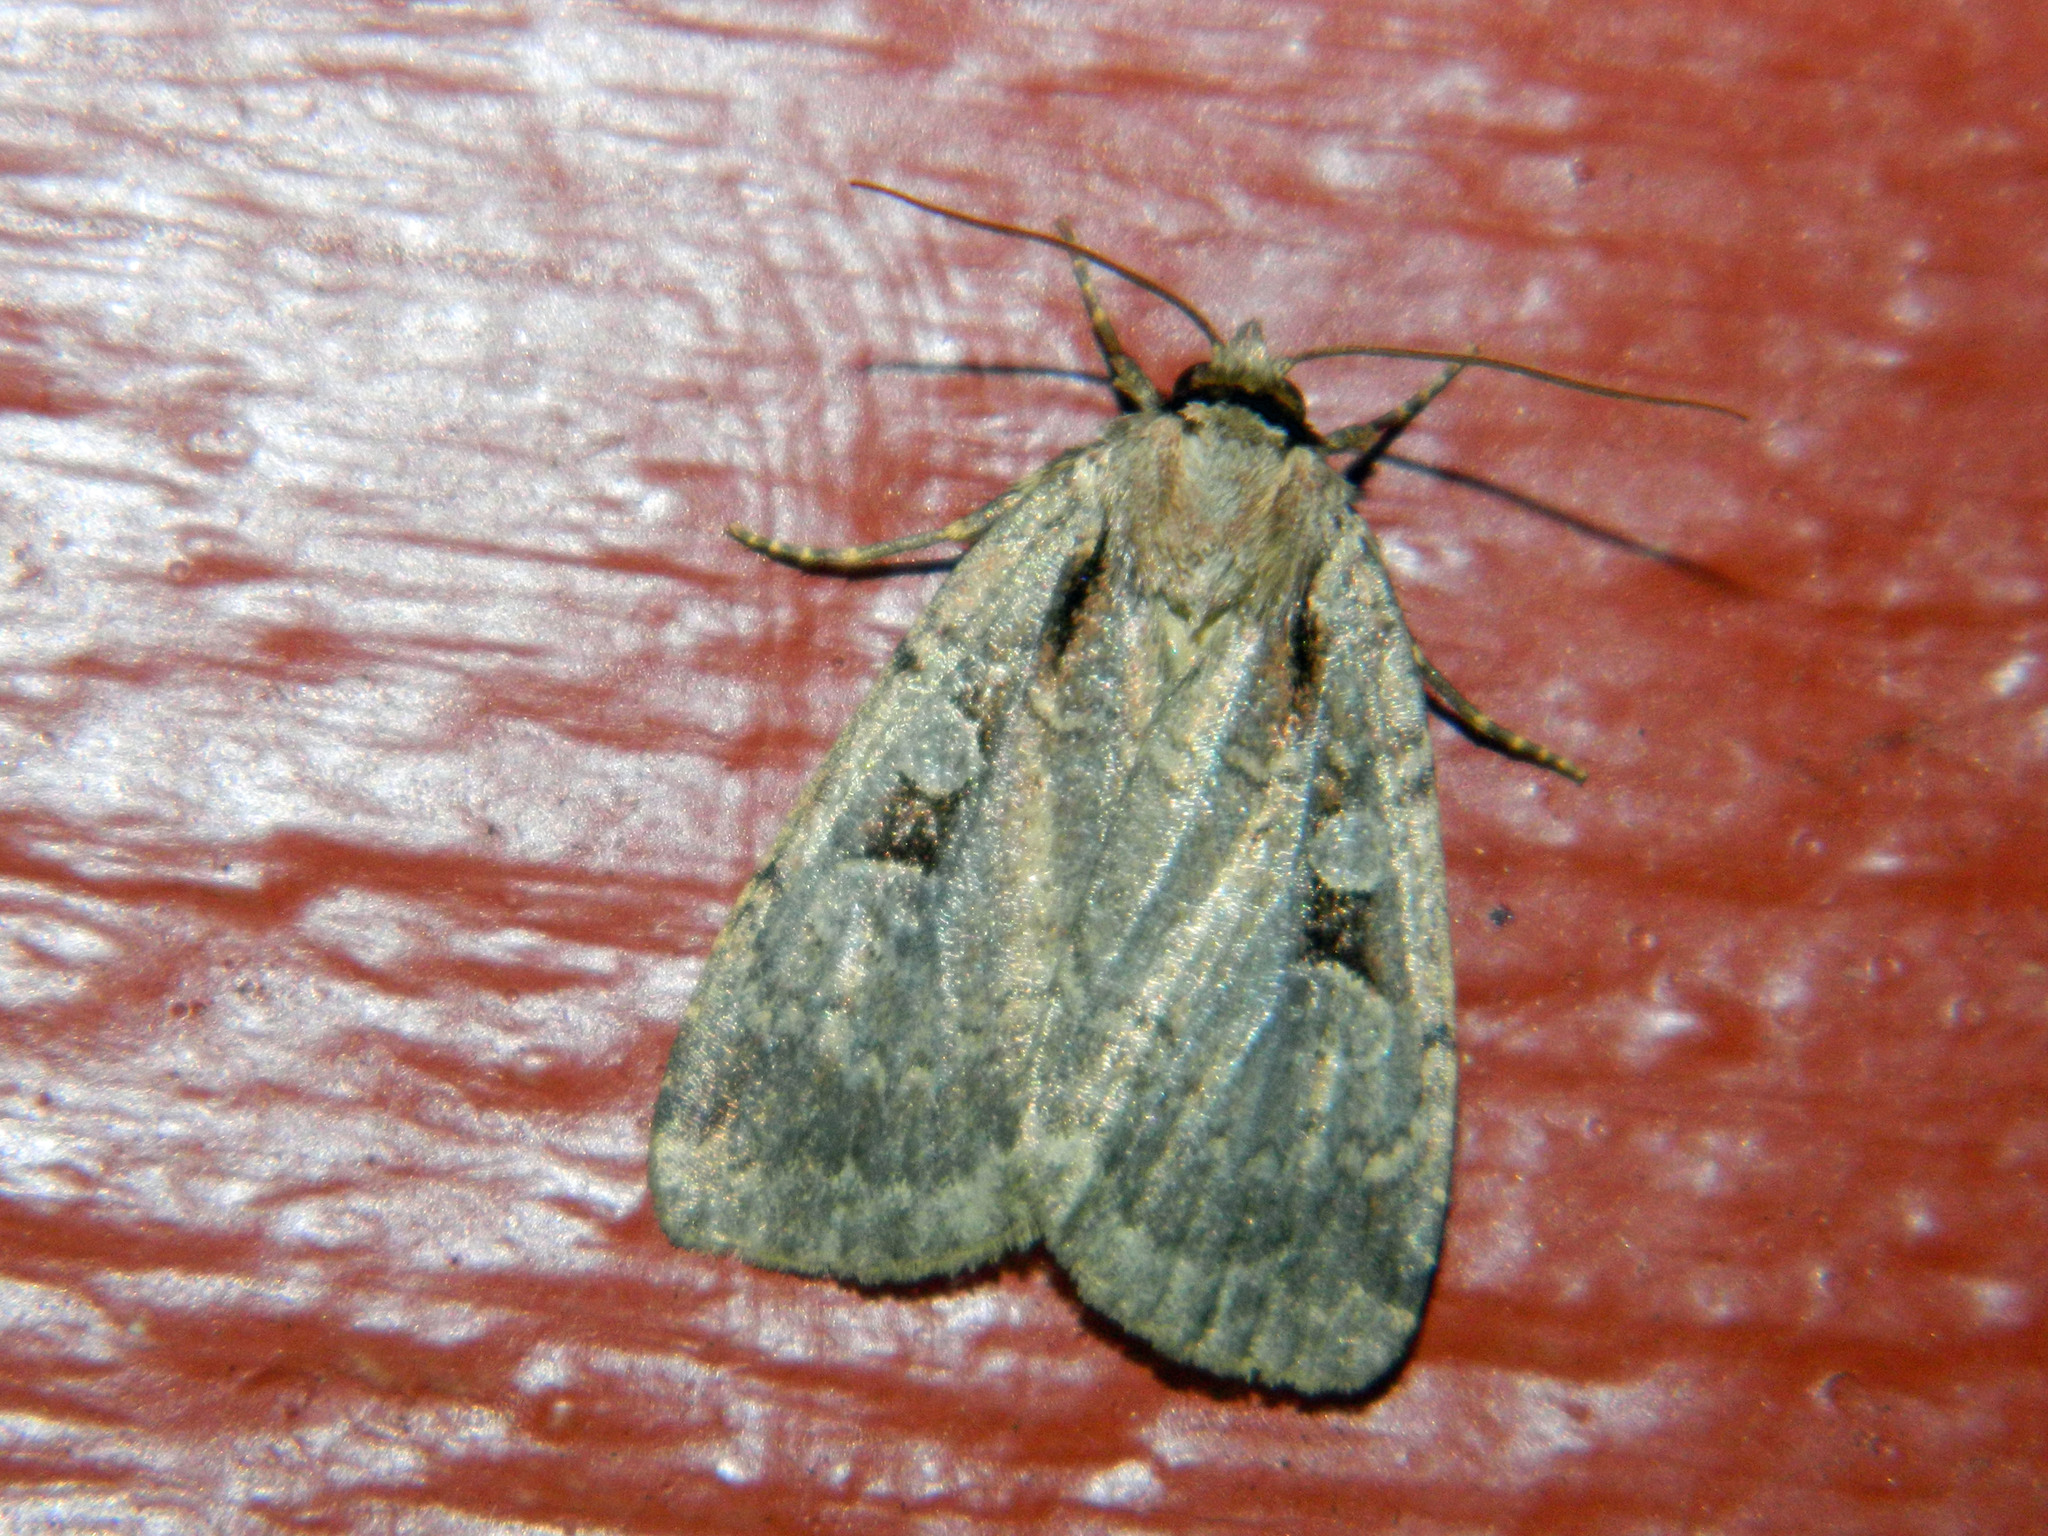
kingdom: Animalia
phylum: Arthropoda
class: Insecta
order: Lepidoptera
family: Noctuidae
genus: Eueretagrotis
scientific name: Eueretagrotis perattentus
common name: Two-spot dart moth
